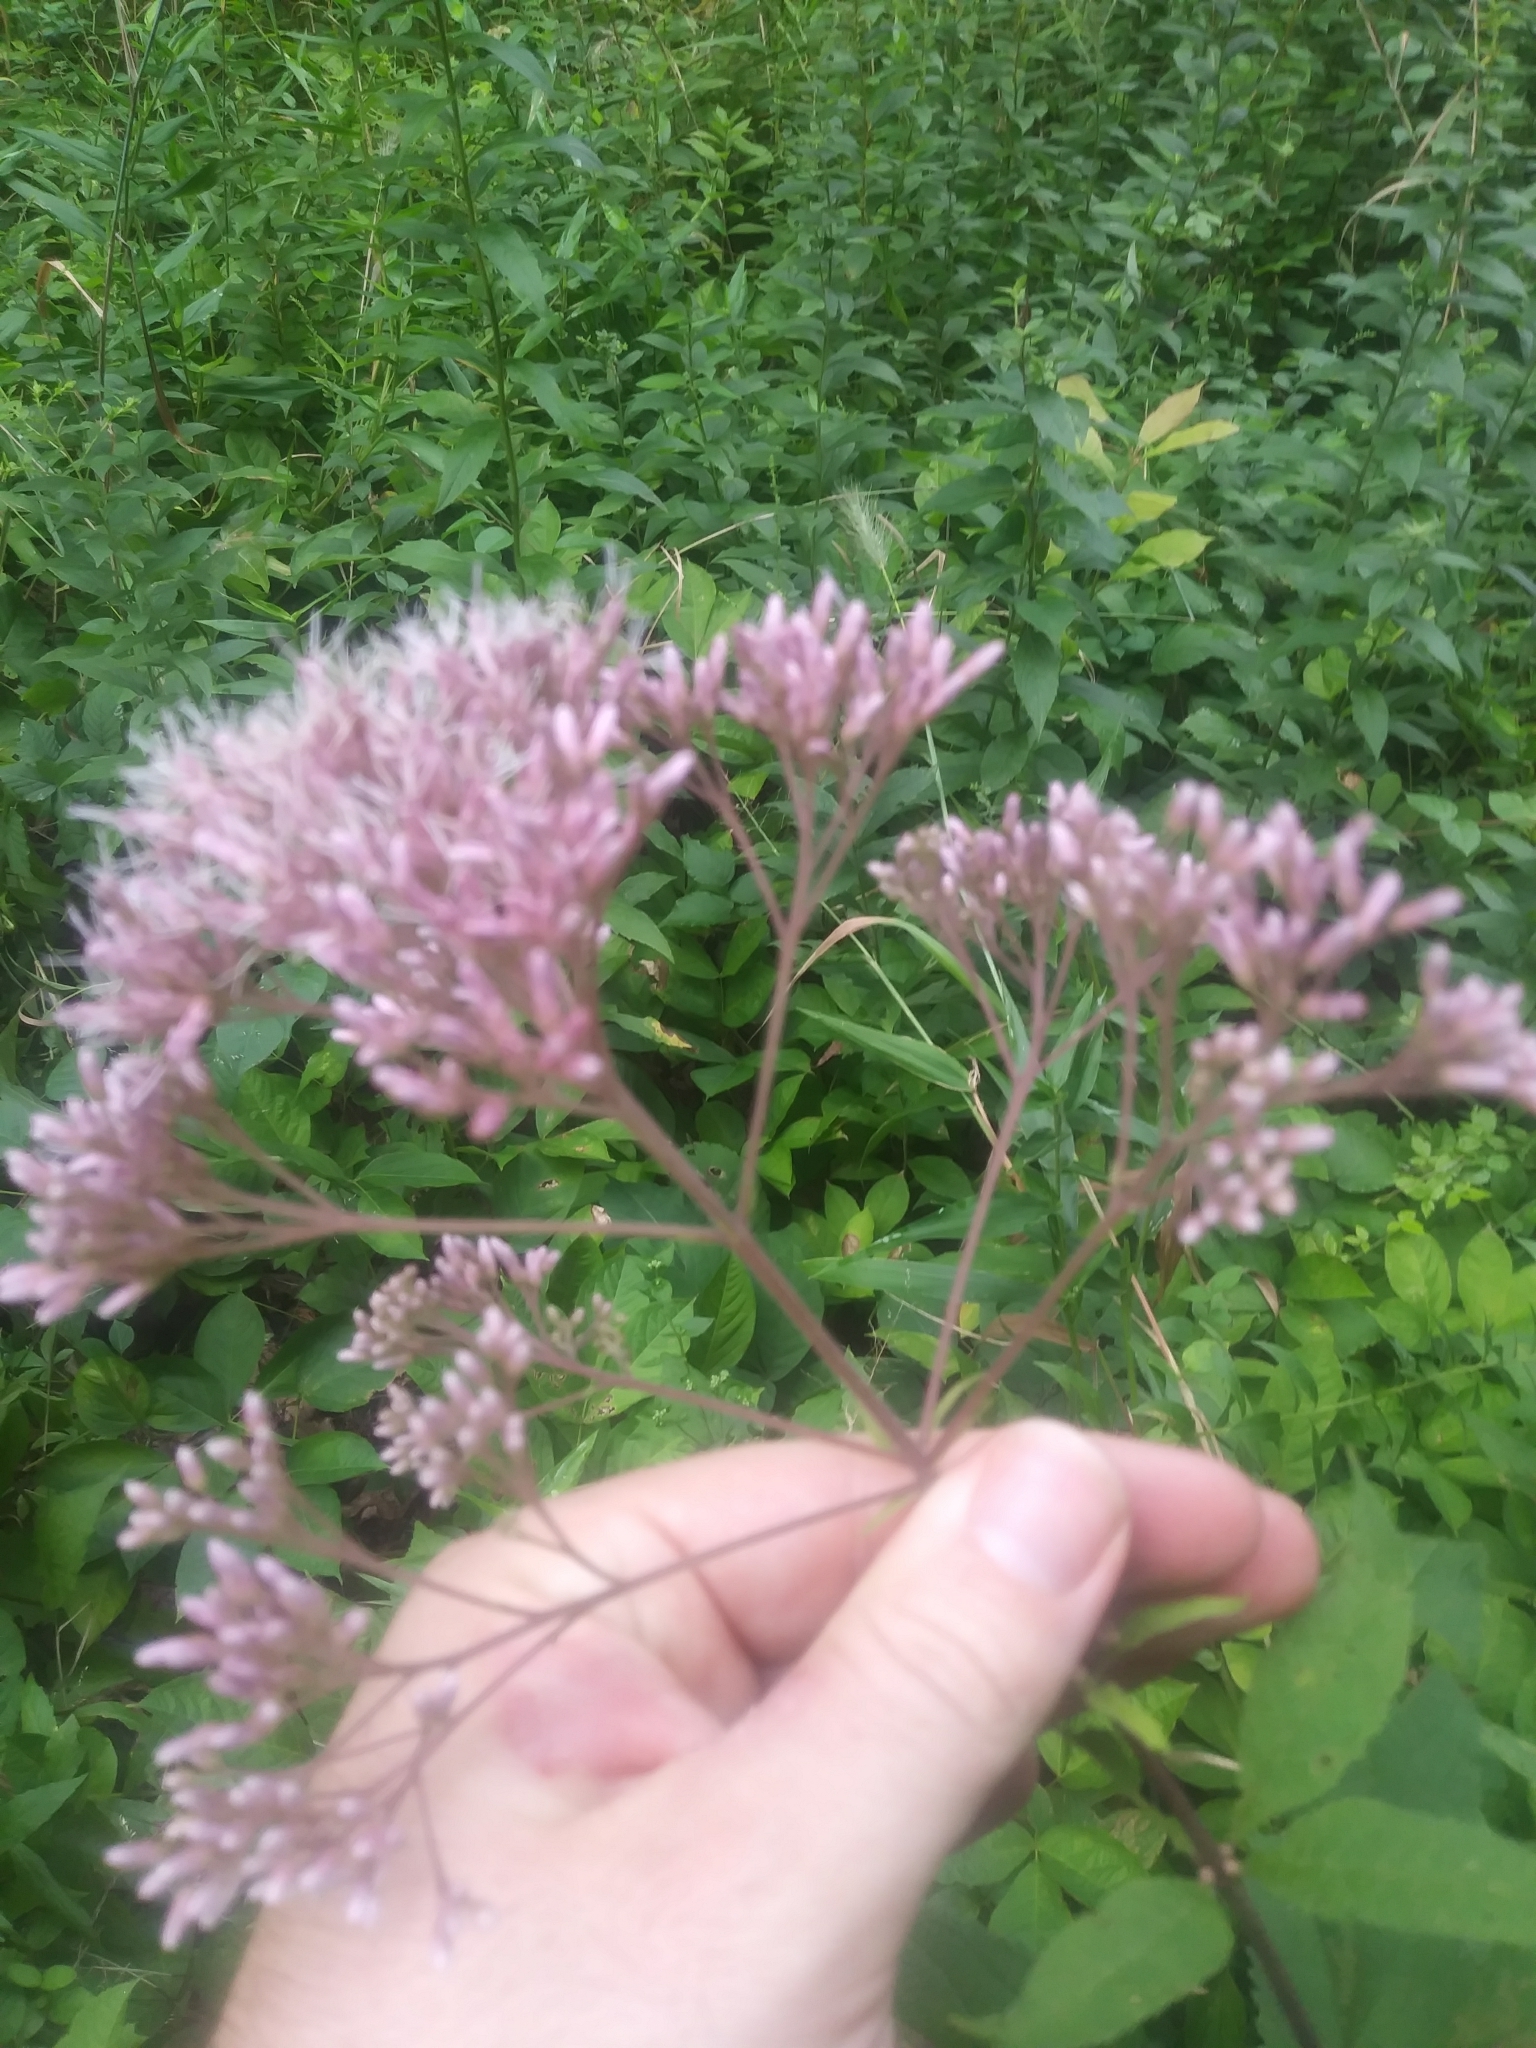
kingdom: Plantae
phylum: Tracheophyta
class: Magnoliopsida
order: Asterales
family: Asteraceae
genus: Eutrochium
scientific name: Eutrochium fistulosum
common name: Trumpetweed
